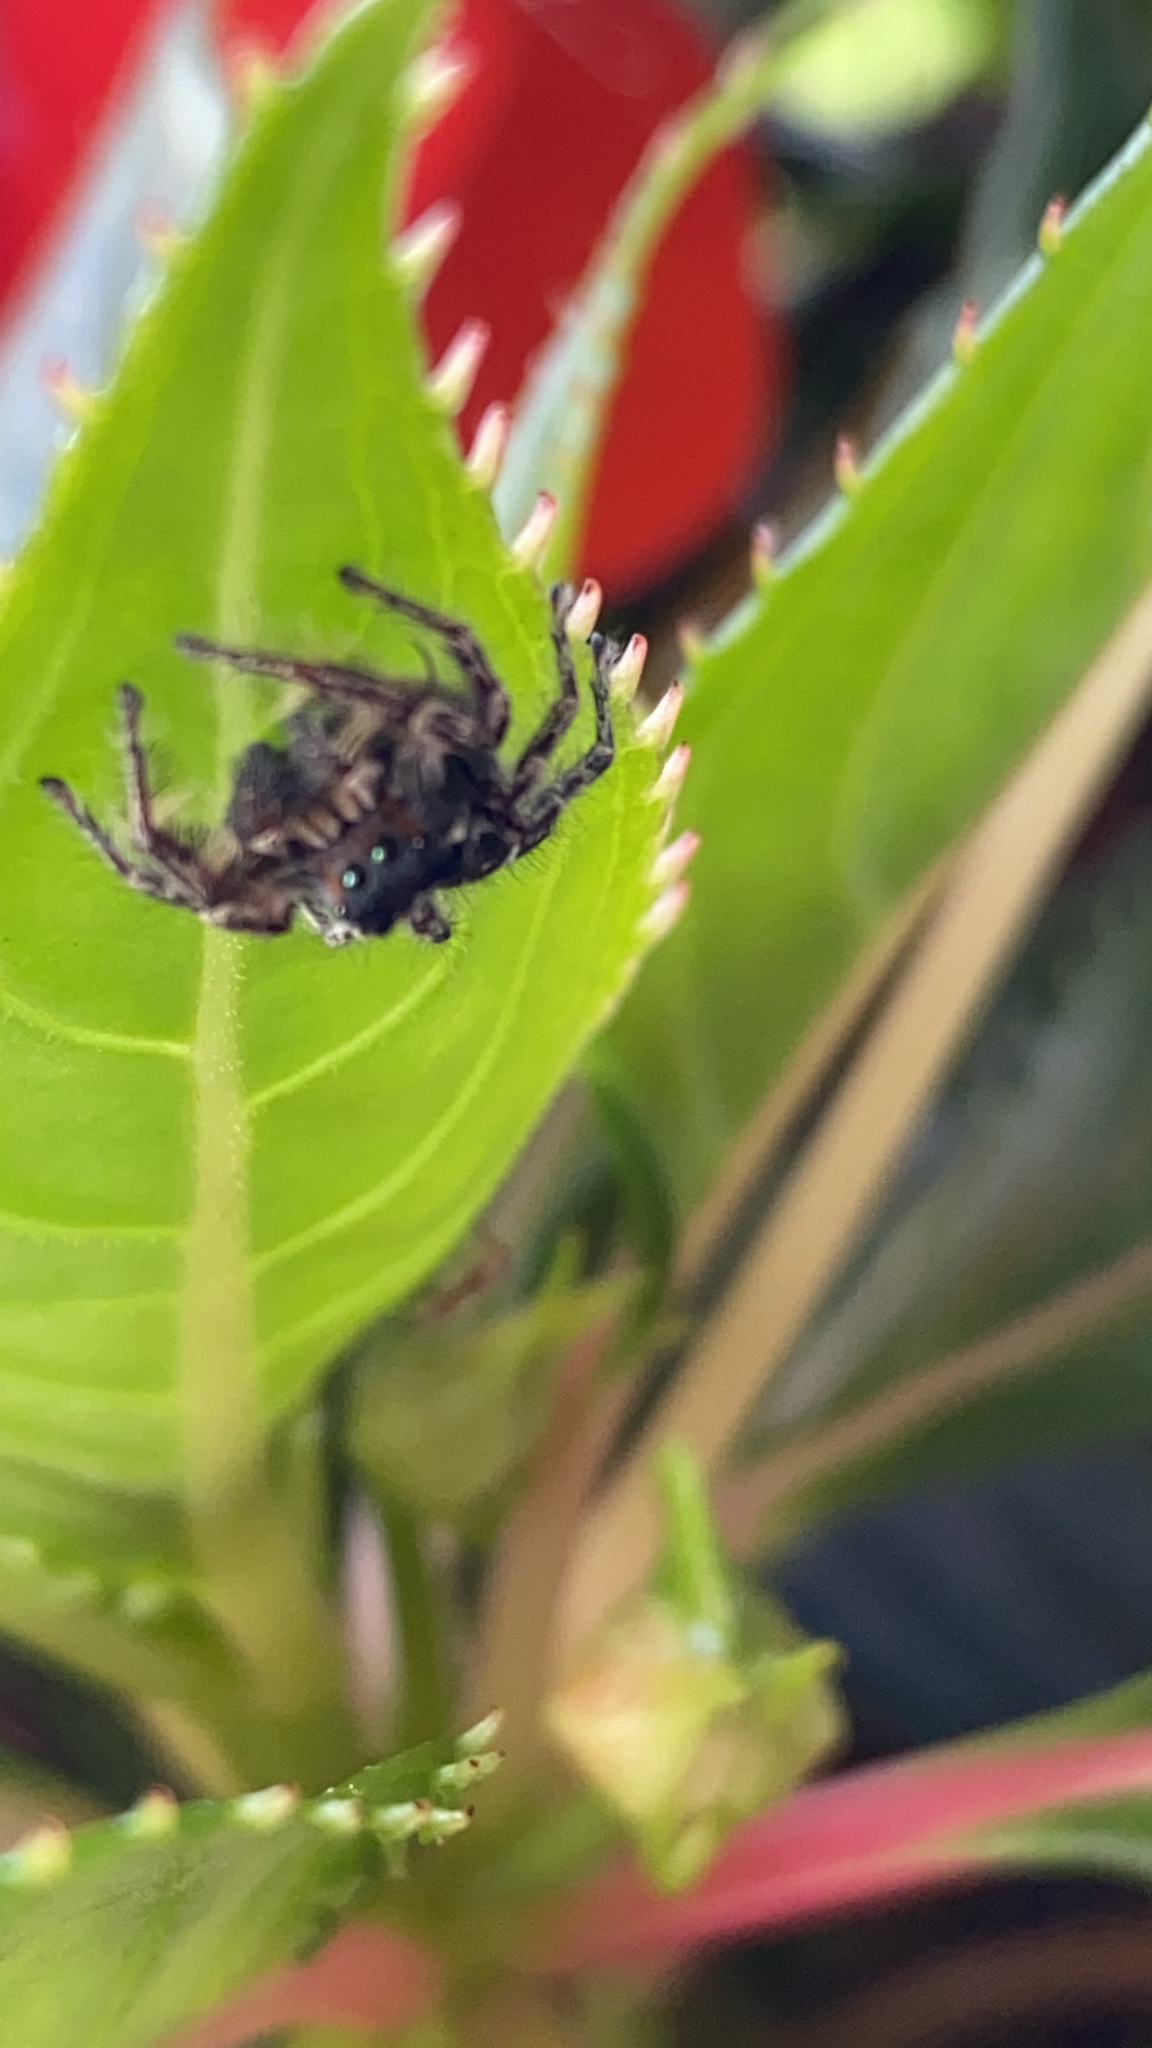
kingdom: Animalia
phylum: Arthropoda
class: Arachnida
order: Araneae
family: Salticidae
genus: Phidippus
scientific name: Phidippus putnami
